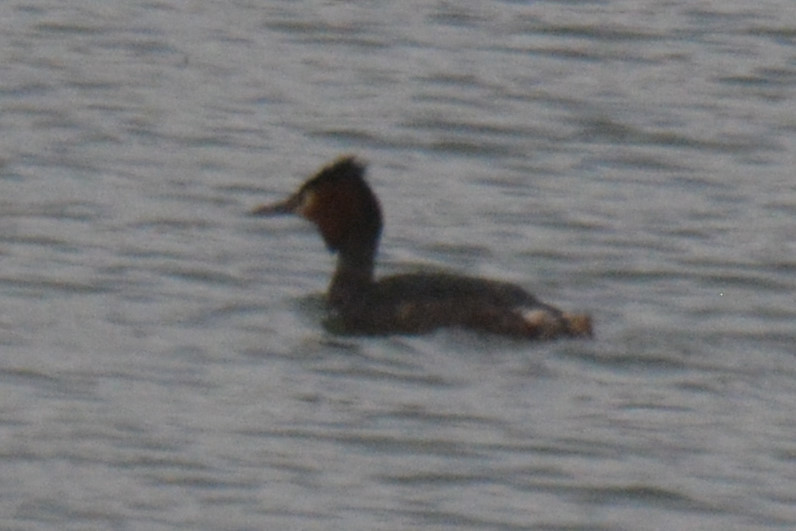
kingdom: Animalia
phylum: Chordata
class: Aves
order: Podicipediformes
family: Podicipedidae
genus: Podiceps
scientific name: Podiceps cristatus
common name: Great crested grebe
